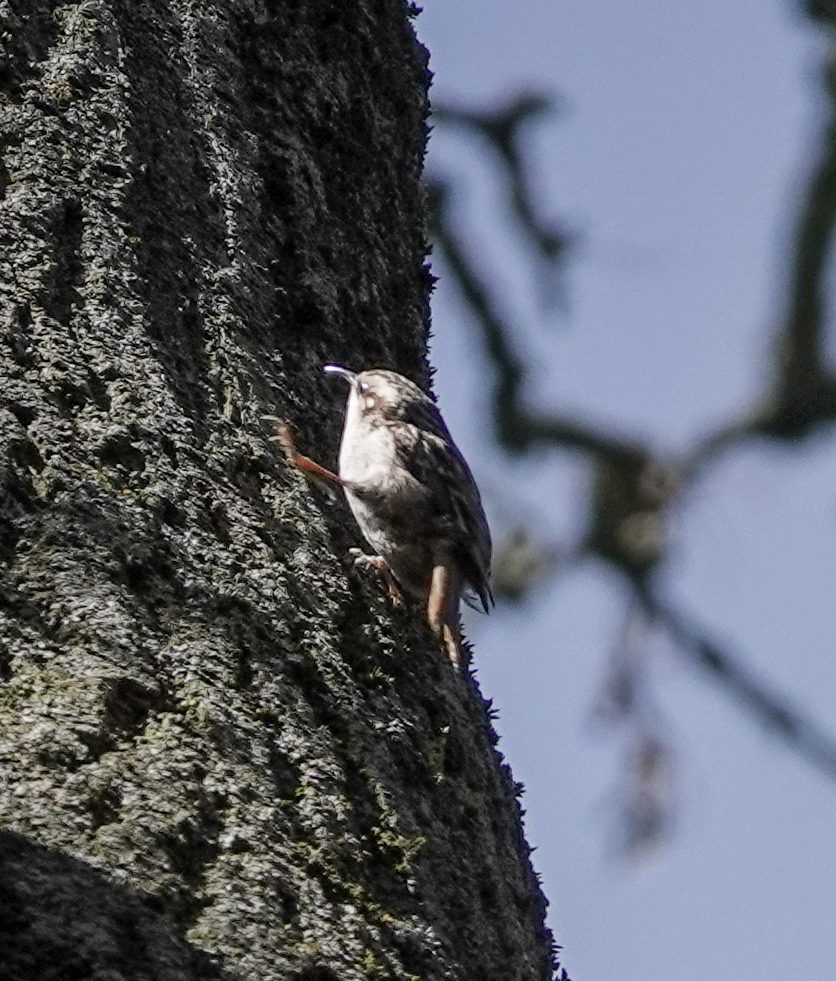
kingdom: Animalia
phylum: Chordata
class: Aves
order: Passeriformes
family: Certhiidae
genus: Certhia
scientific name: Certhia brachydactyla
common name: Short-toed treecreeper
